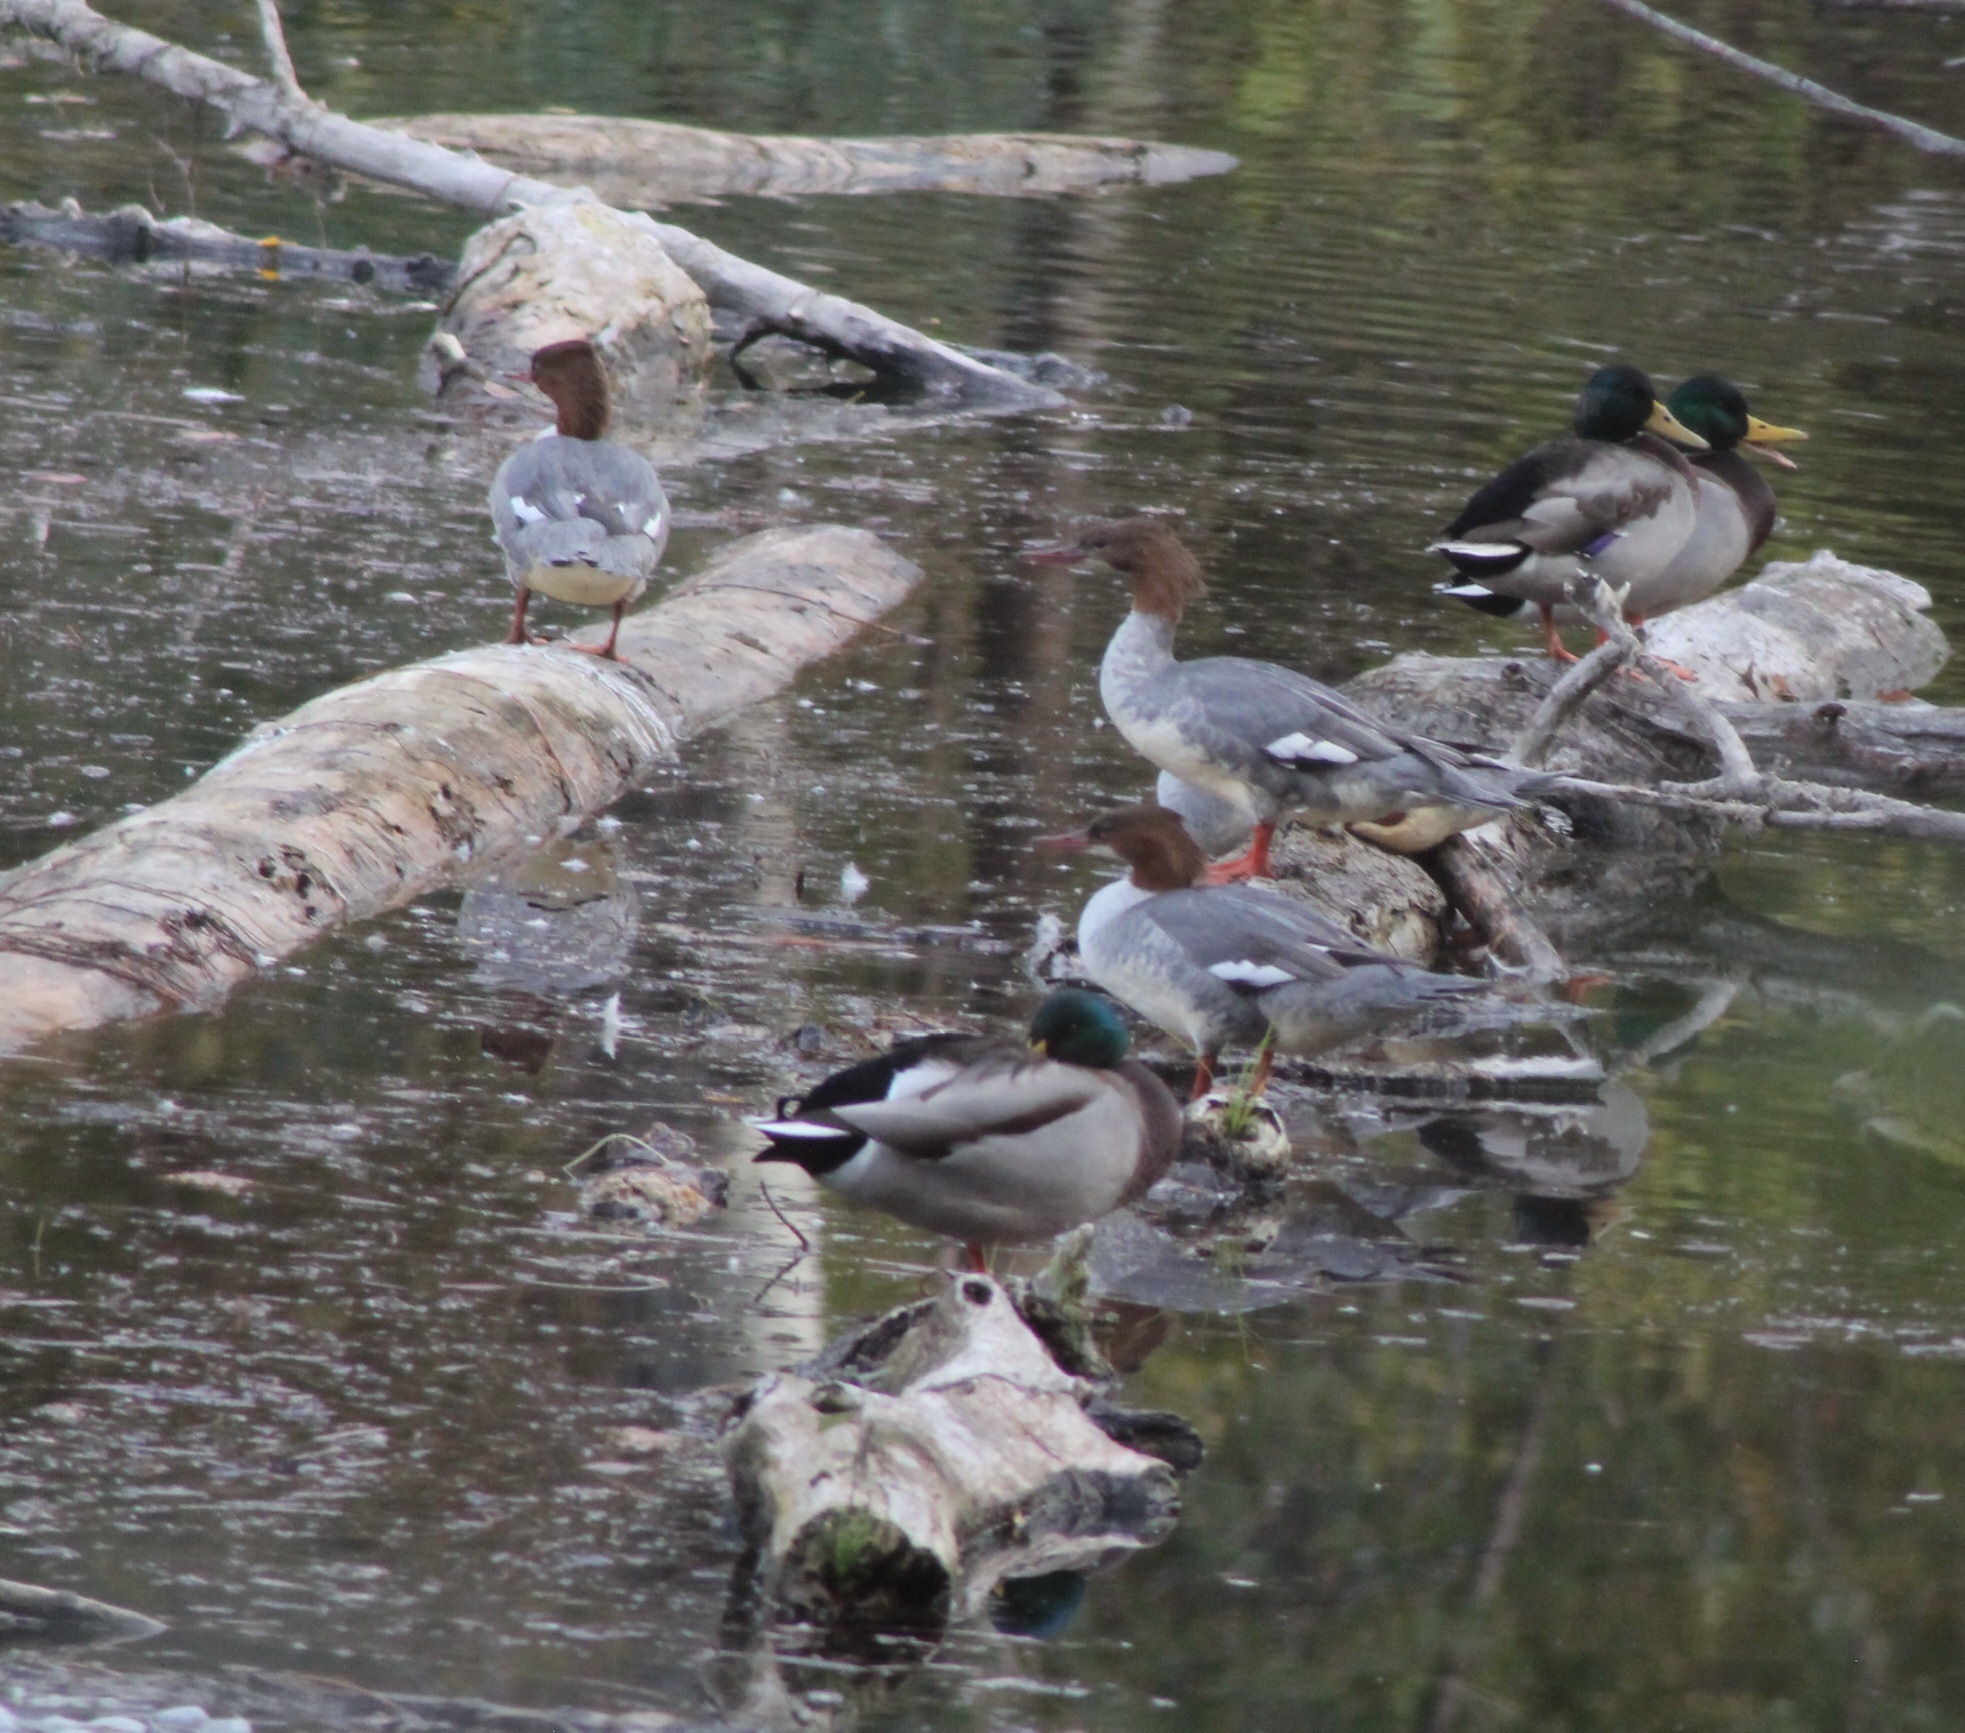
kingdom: Animalia
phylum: Chordata
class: Aves
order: Anseriformes
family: Anatidae
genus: Mergus
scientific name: Mergus merganser
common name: Common merganser
